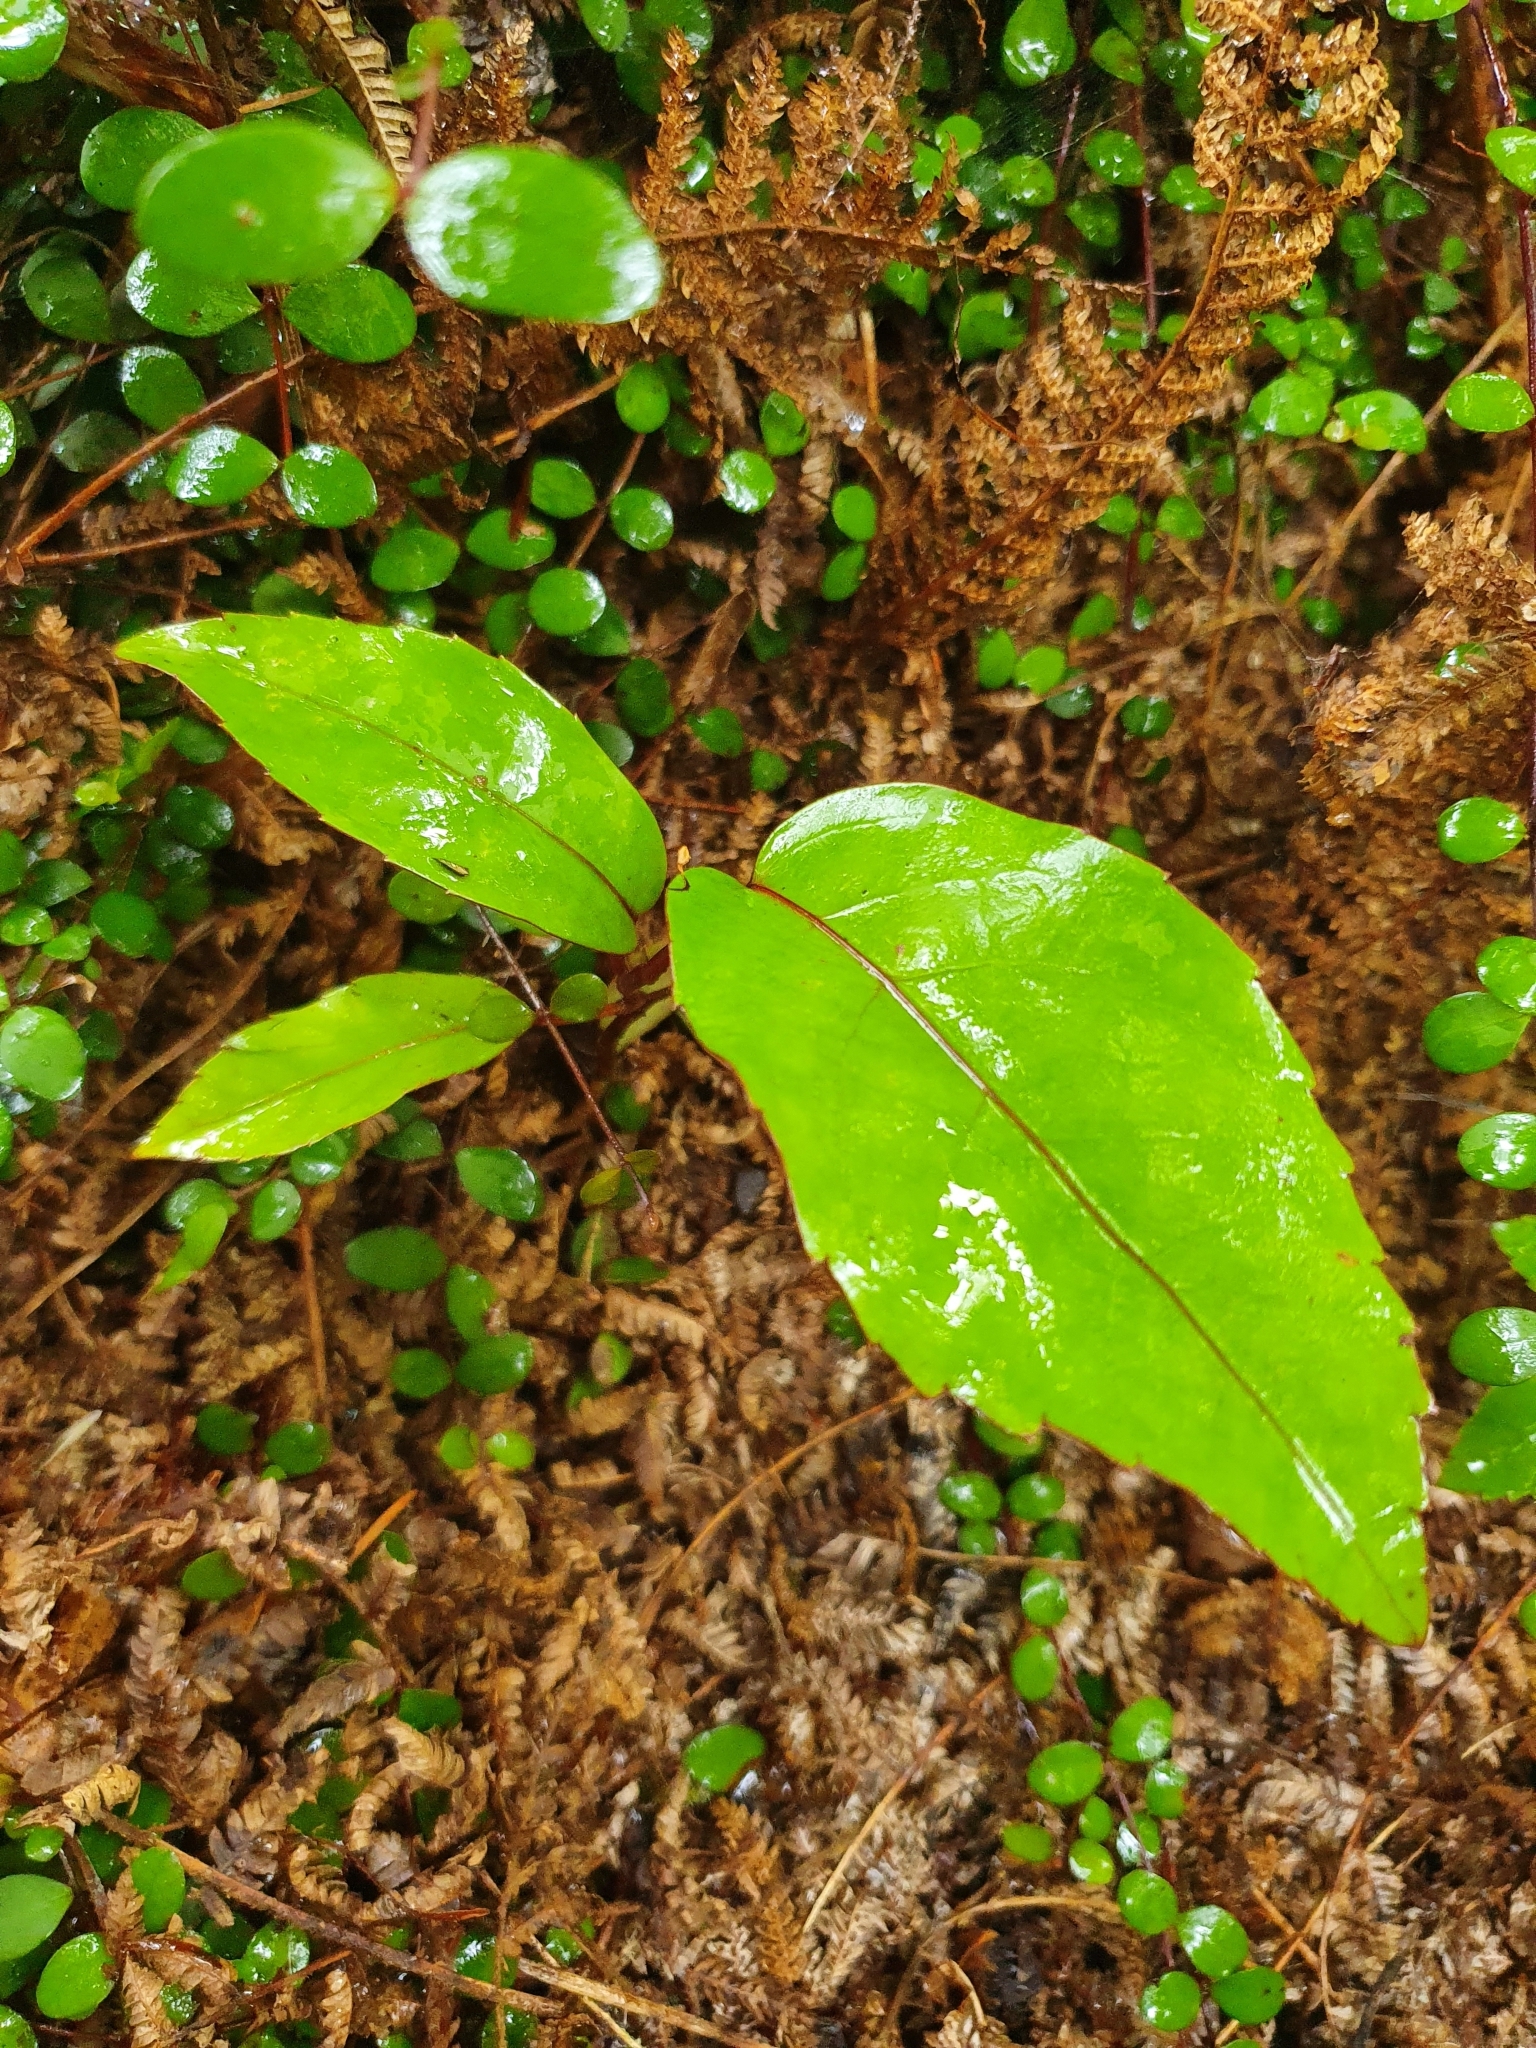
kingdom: Plantae
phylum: Tracheophyta
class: Magnoliopsida
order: Apiales
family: Araliaceae
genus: Neopanax
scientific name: Neopanax laetus
